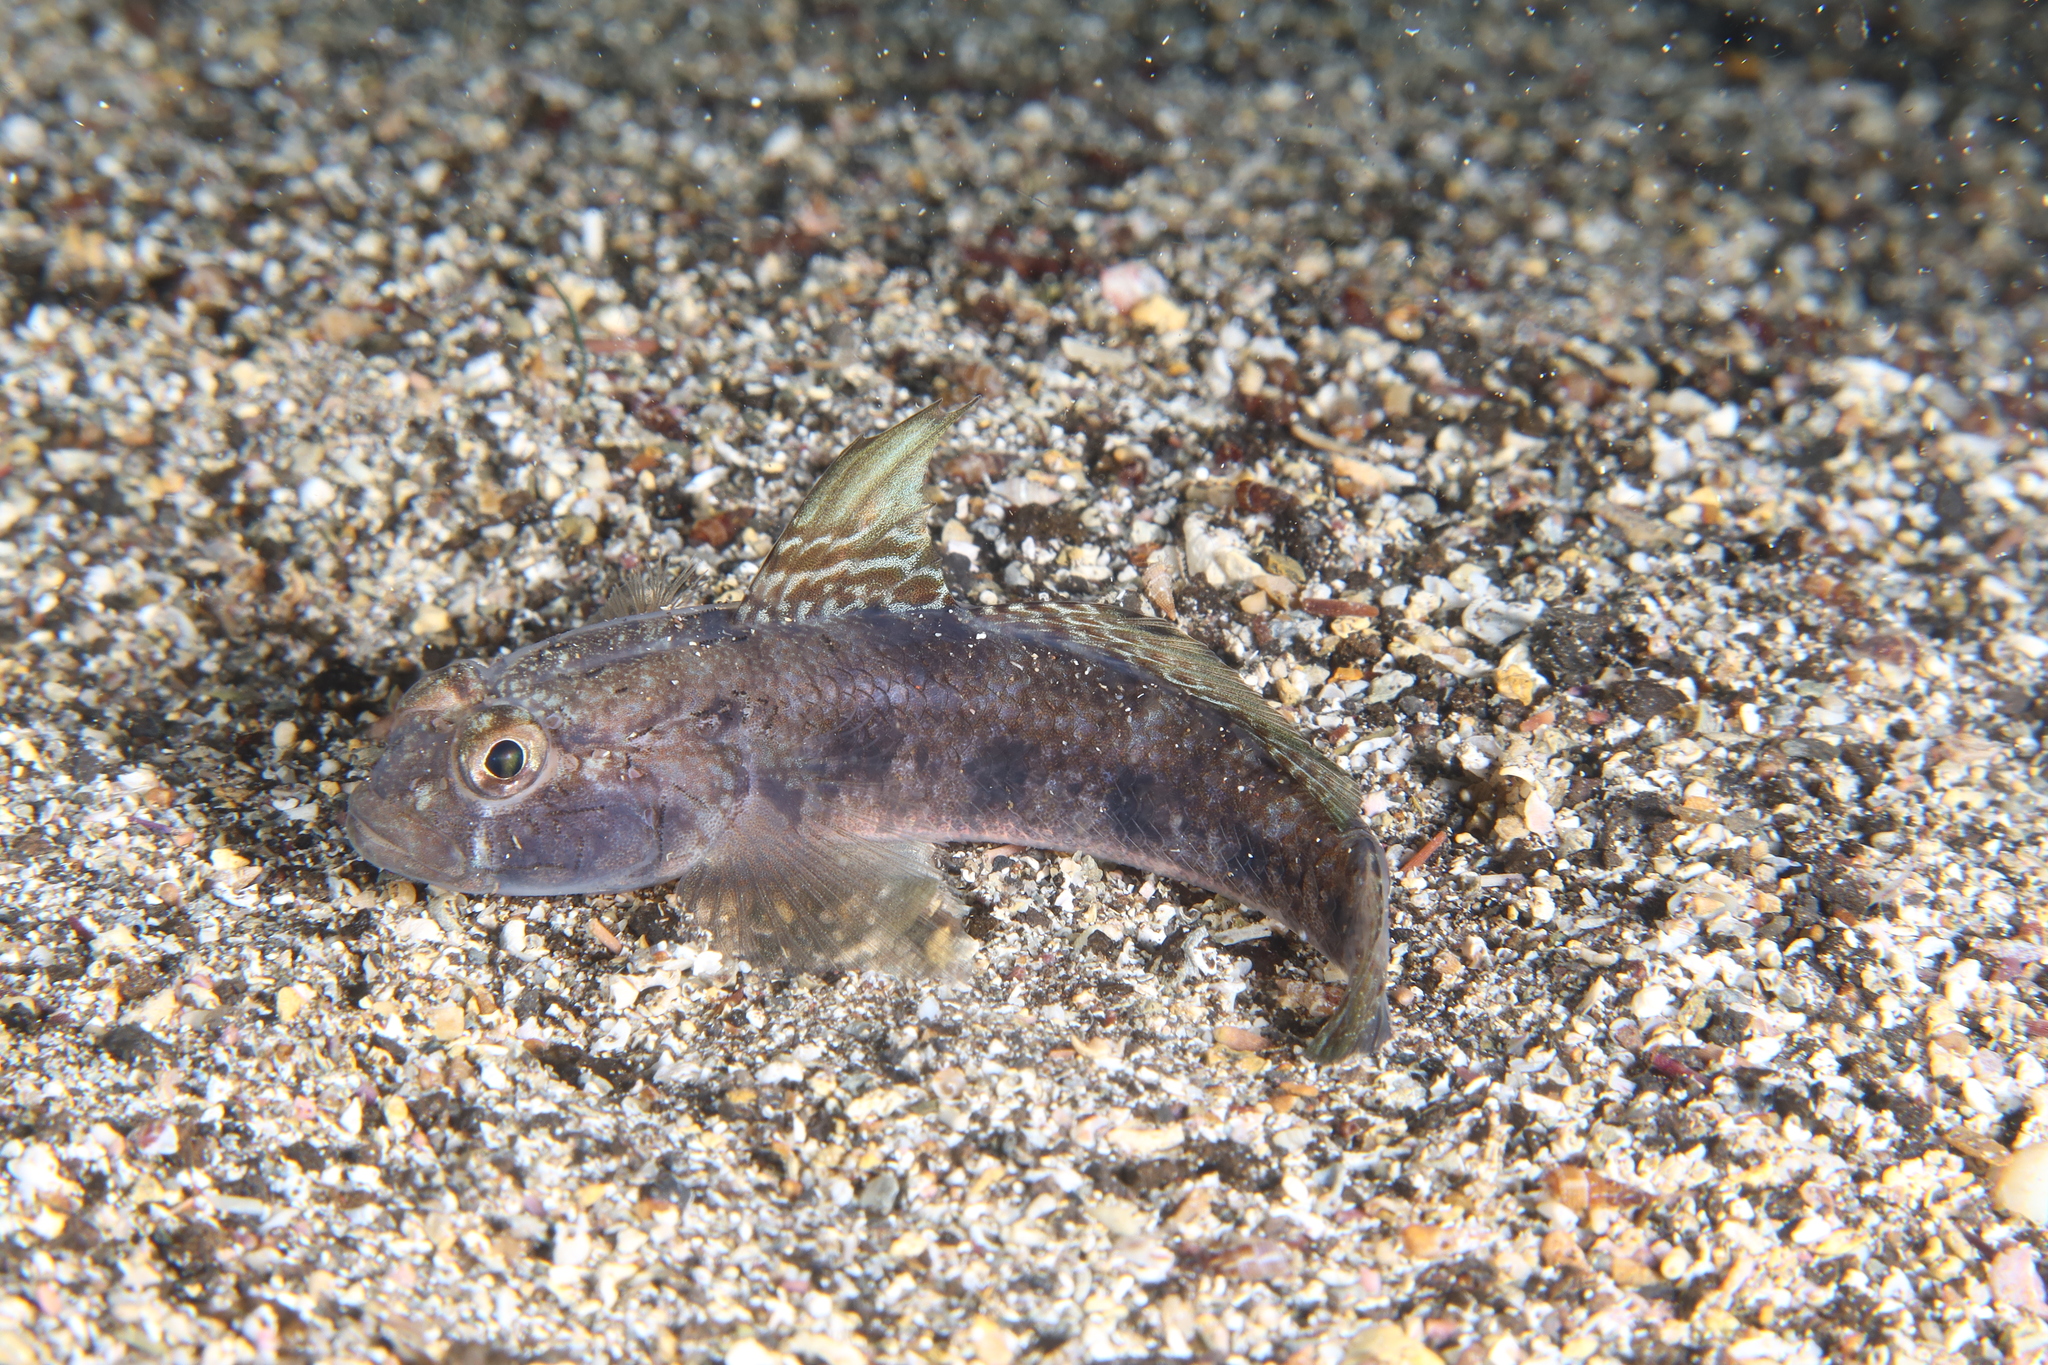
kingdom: Animalia
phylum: Chordata
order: Perciformes
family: Gobiidae
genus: Gobius
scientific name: Gobius niger
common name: Black goby
